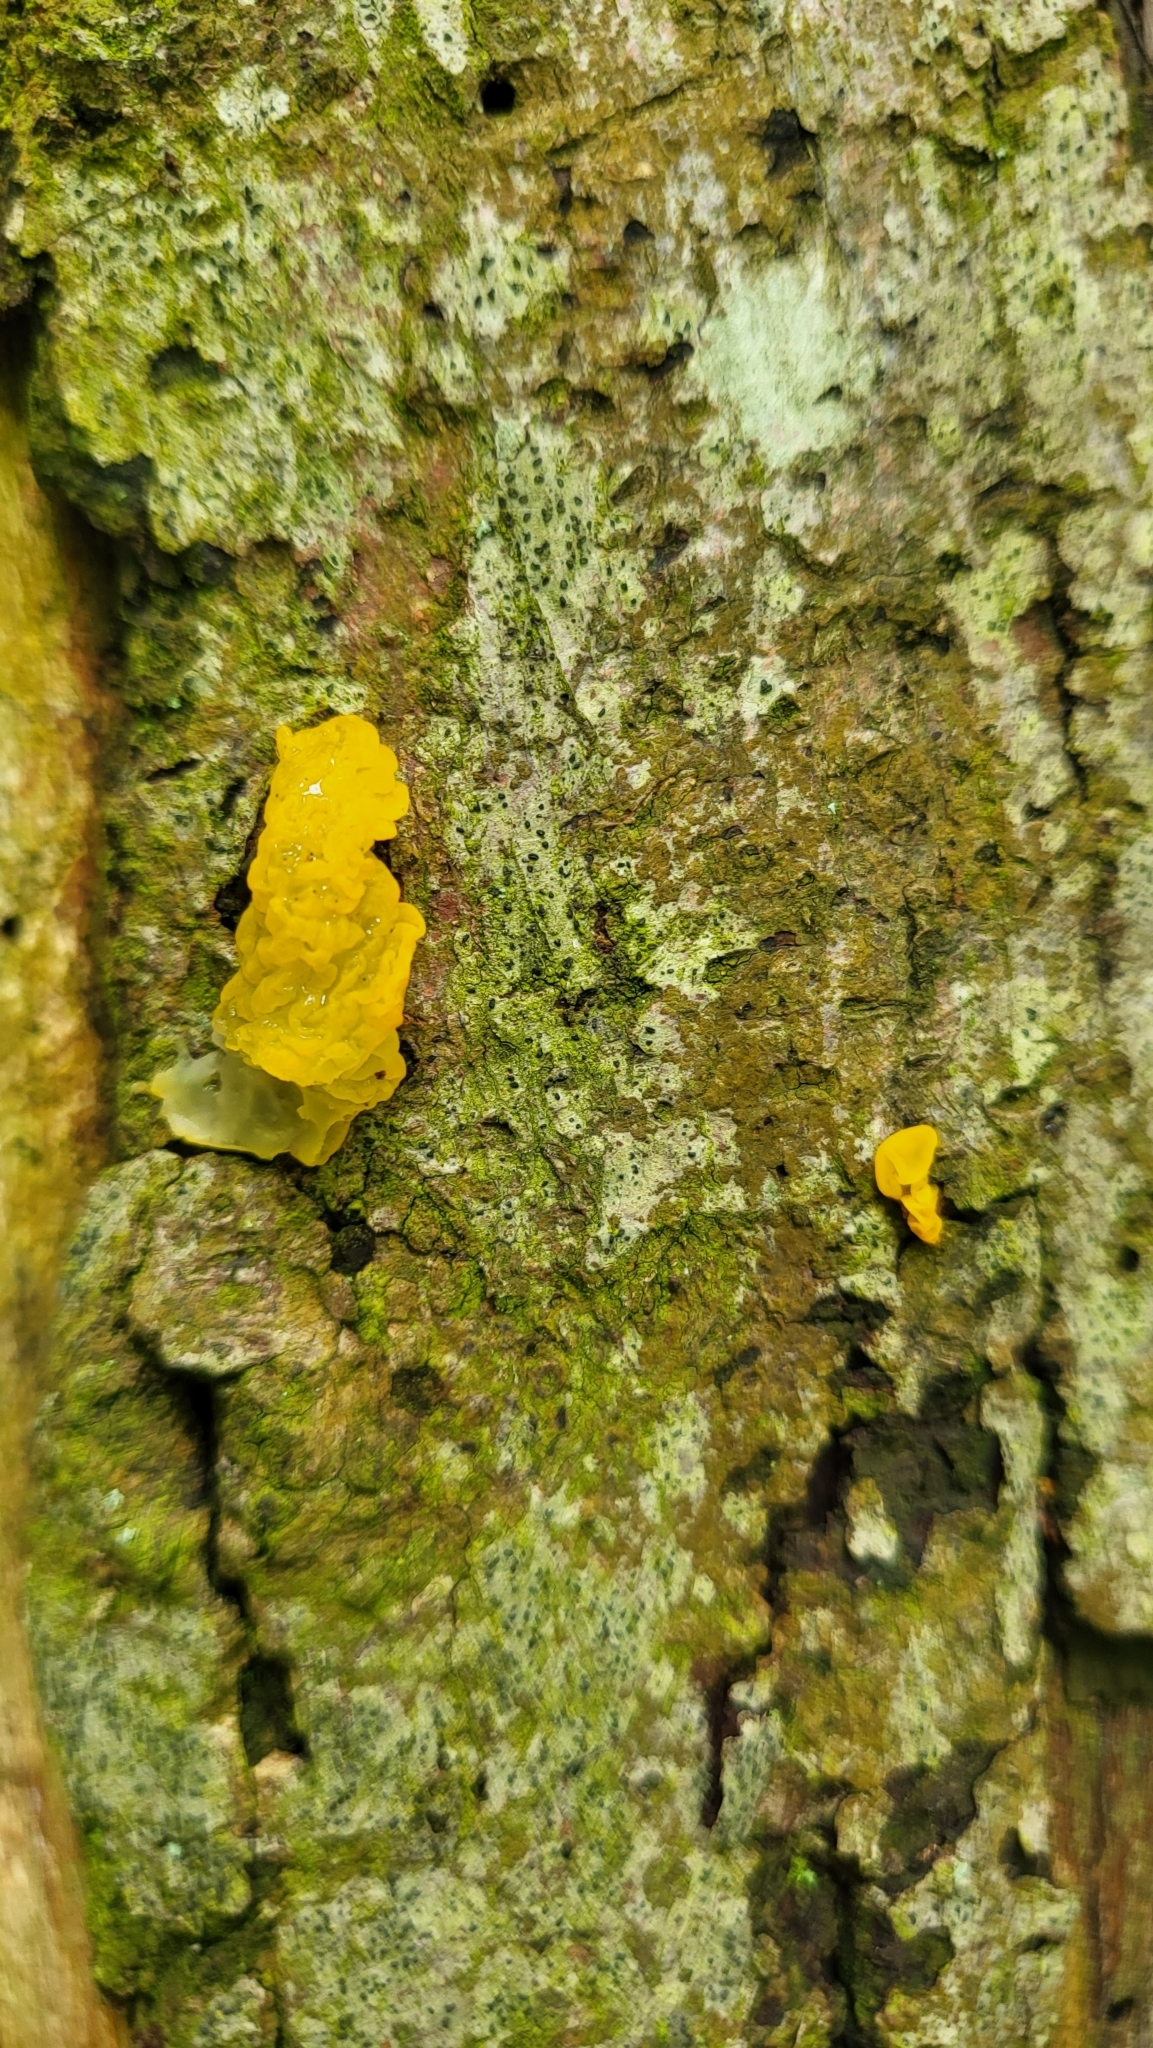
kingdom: Fungi
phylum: Basidiomycota
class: Tremellomycetes
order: Tremellales
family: Tremellaceae
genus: Tremella
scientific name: Tremella mesenterica
